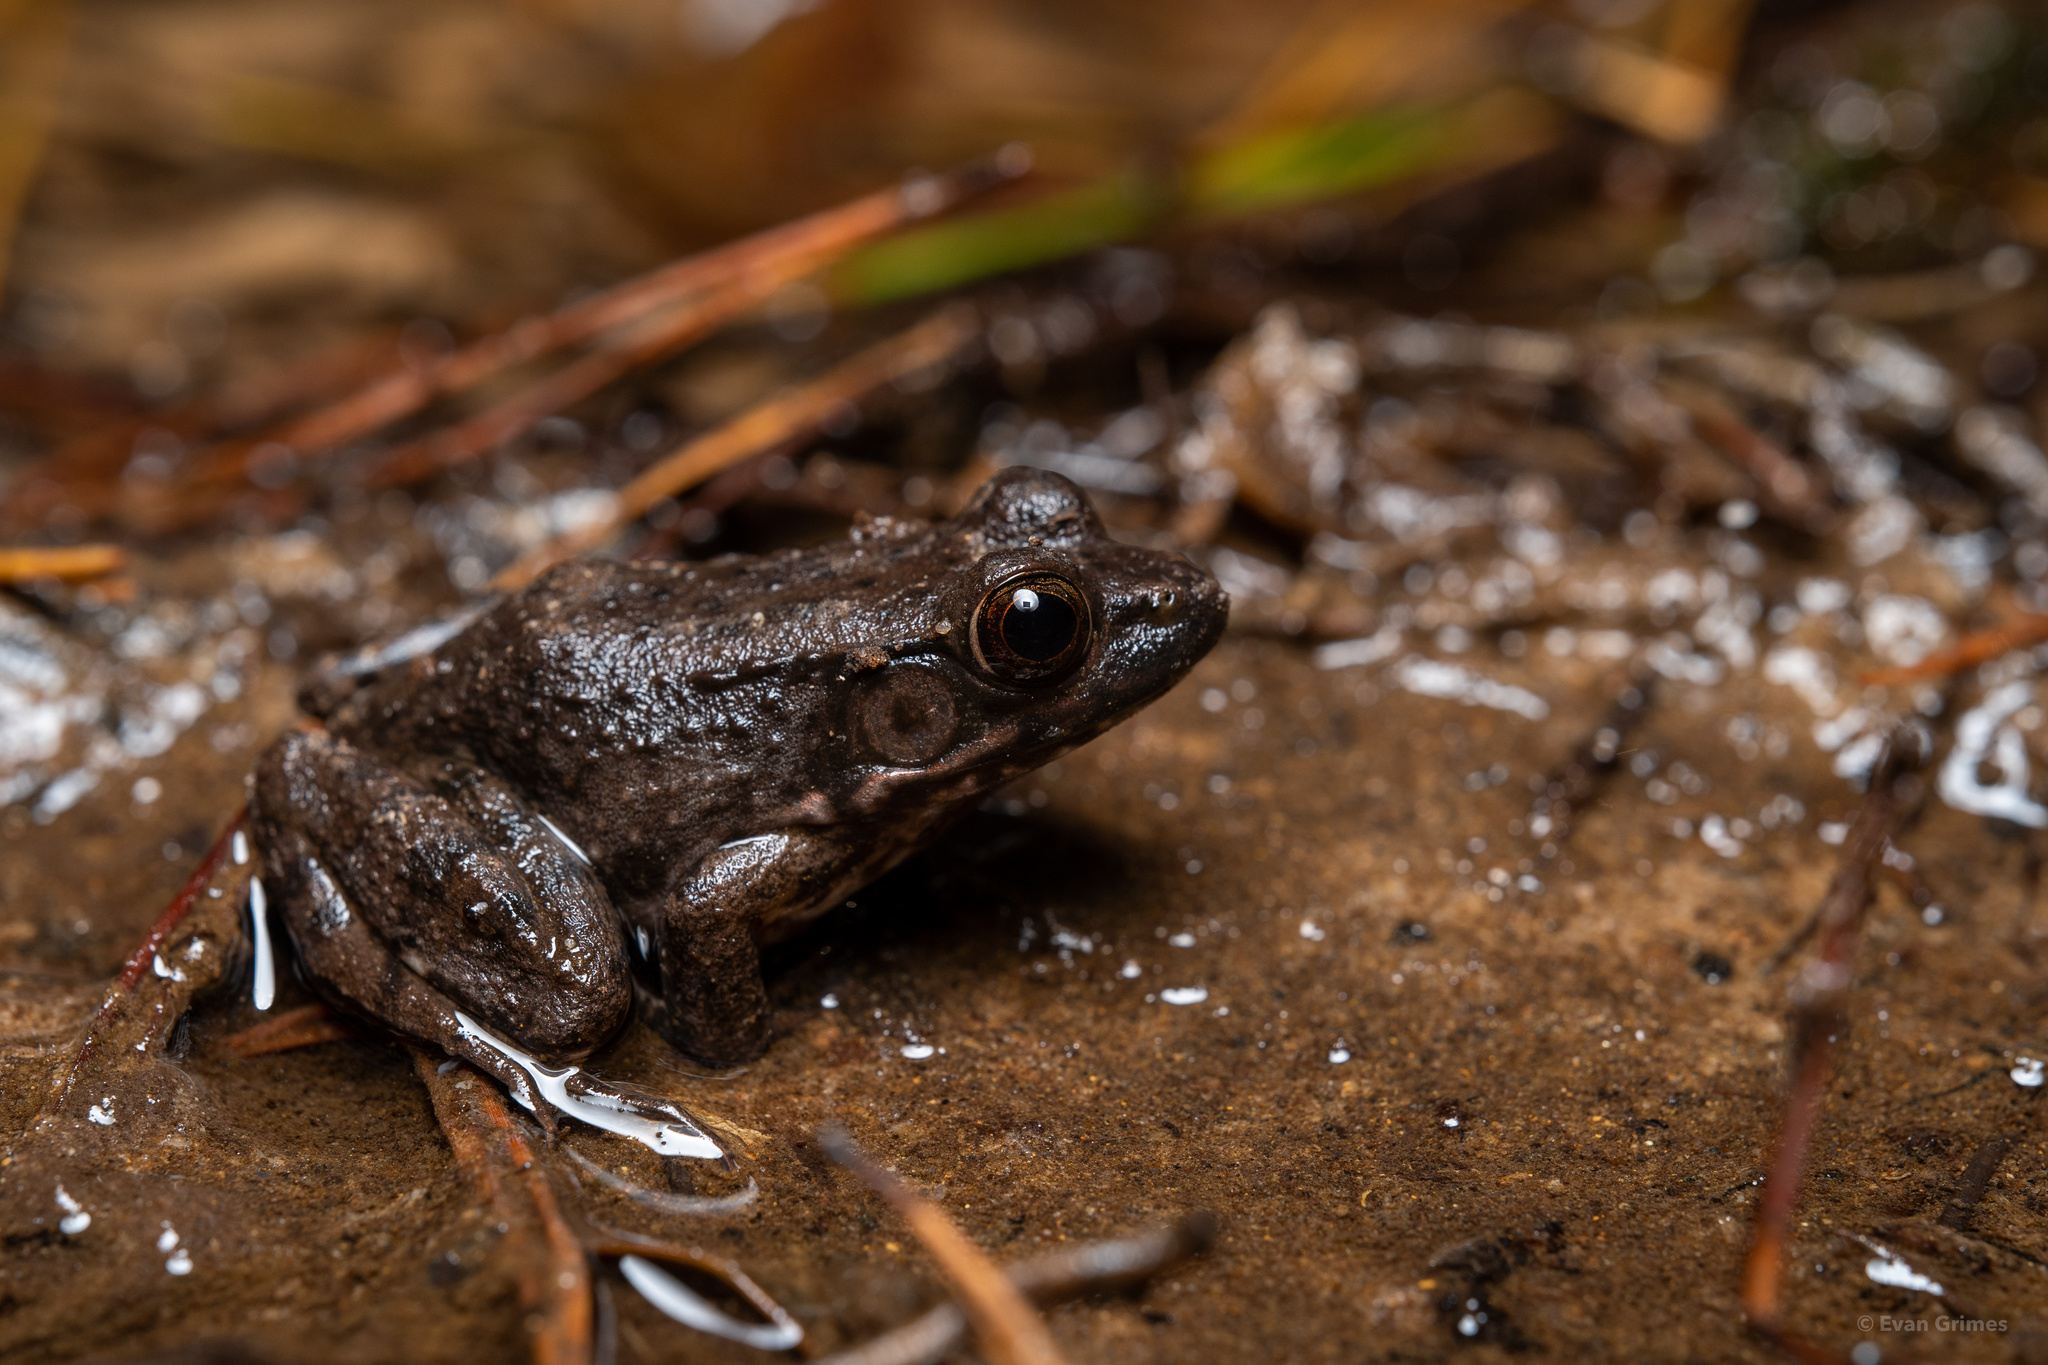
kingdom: Animalia
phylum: Chordata
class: Amphibia
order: Anura
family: Ranidae
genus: Lithobates
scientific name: Lithobates clamitans
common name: Green frog
